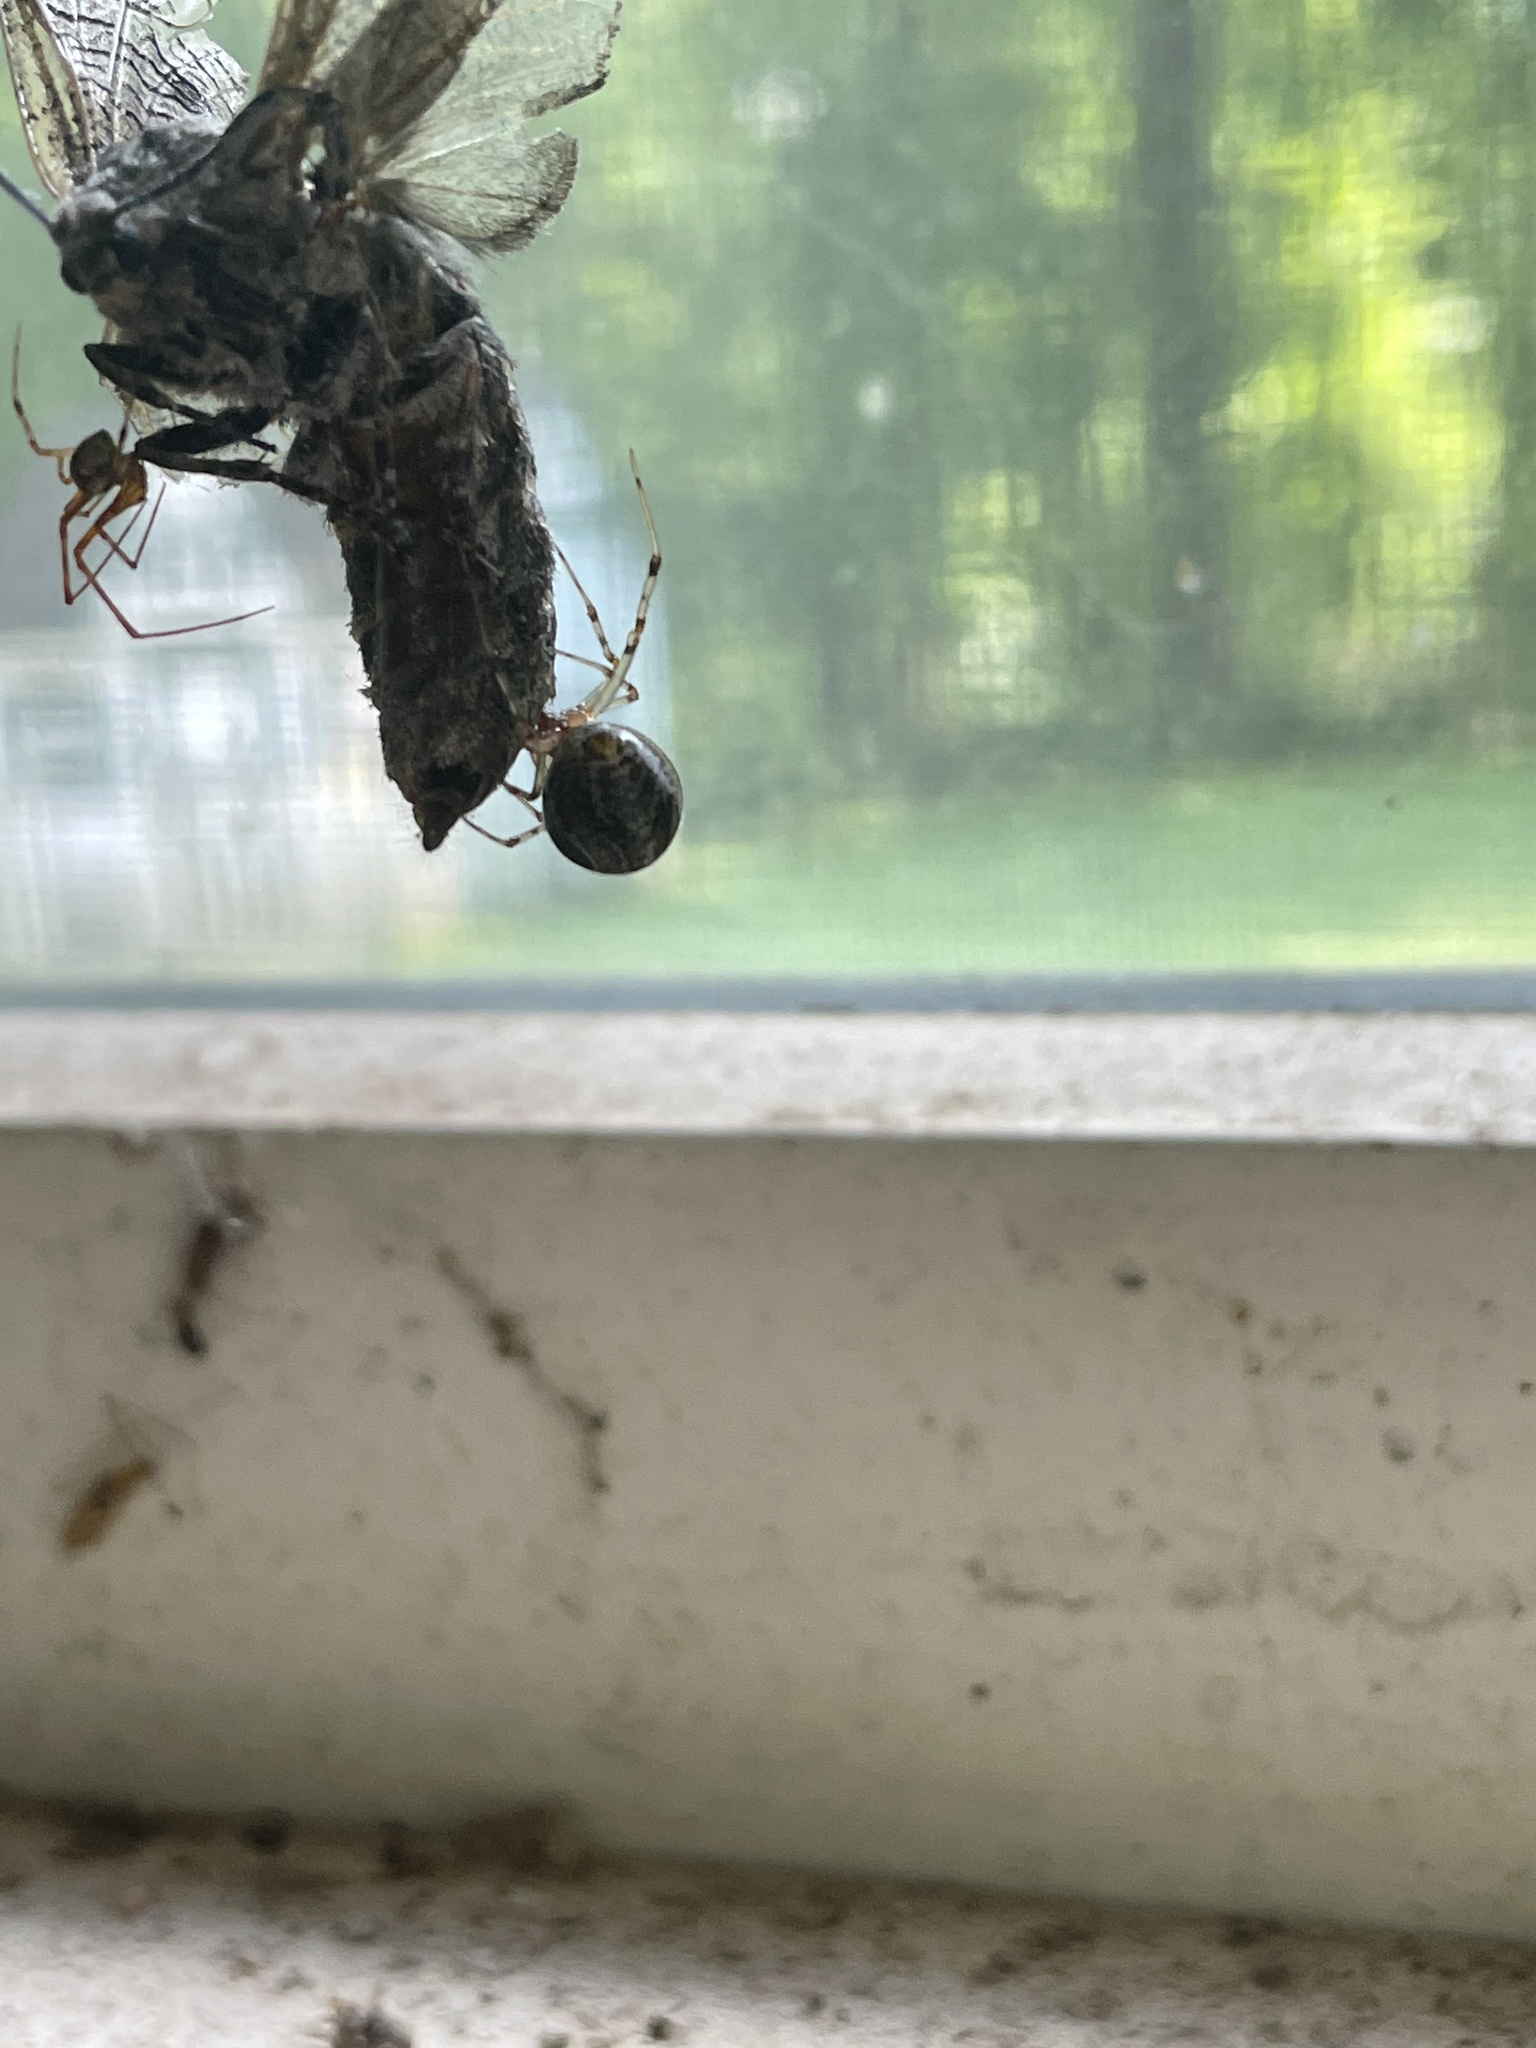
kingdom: Animalia
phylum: Arthropoda
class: Arachnida
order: Araneae
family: Theridiidae
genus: Parasteatoda
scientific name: Parasteatoda tepidariorum
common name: Common house spider
